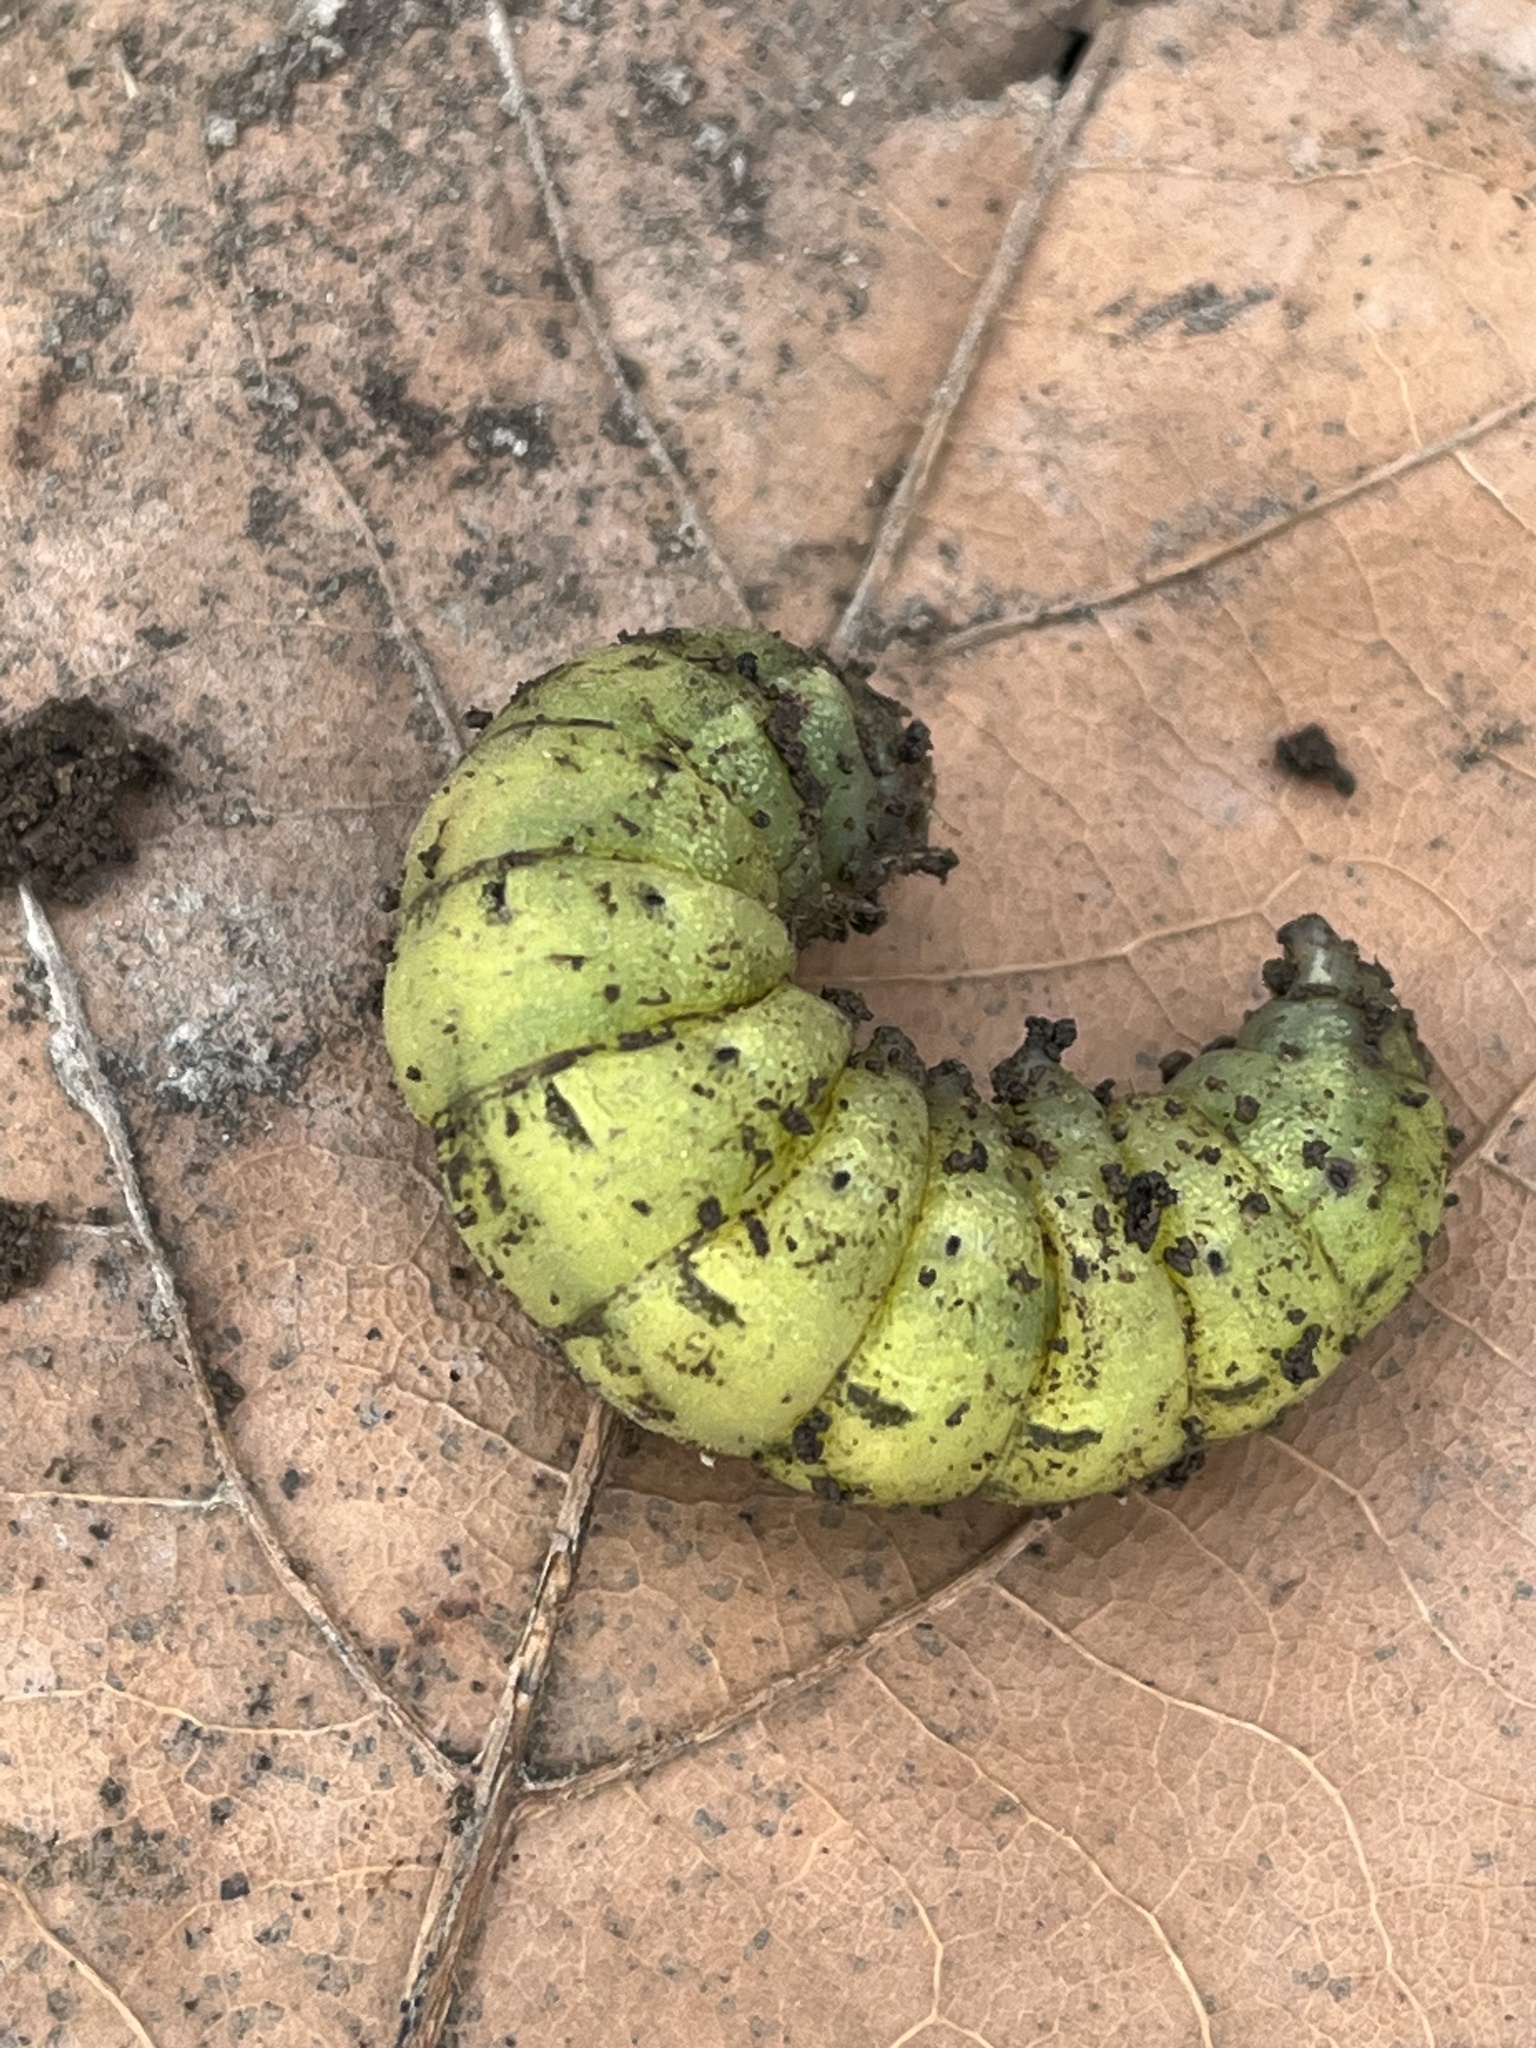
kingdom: Animalia
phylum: Arthropoda
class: Insecta
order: Lepidoptera
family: Noctuidae
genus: Noctua
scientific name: Noctua pronuba
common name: Large yellow underwing
